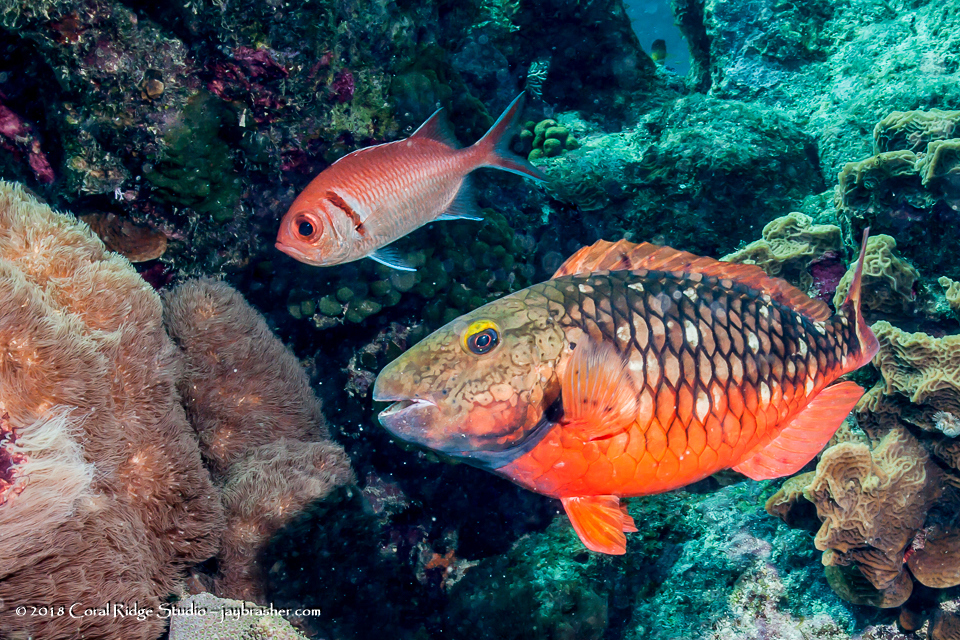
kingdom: Animalia
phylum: Chordata
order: Perciformes
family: Scaridae
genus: Sparisoma
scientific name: Sparisoma viride
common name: Stoplight parrotfish
